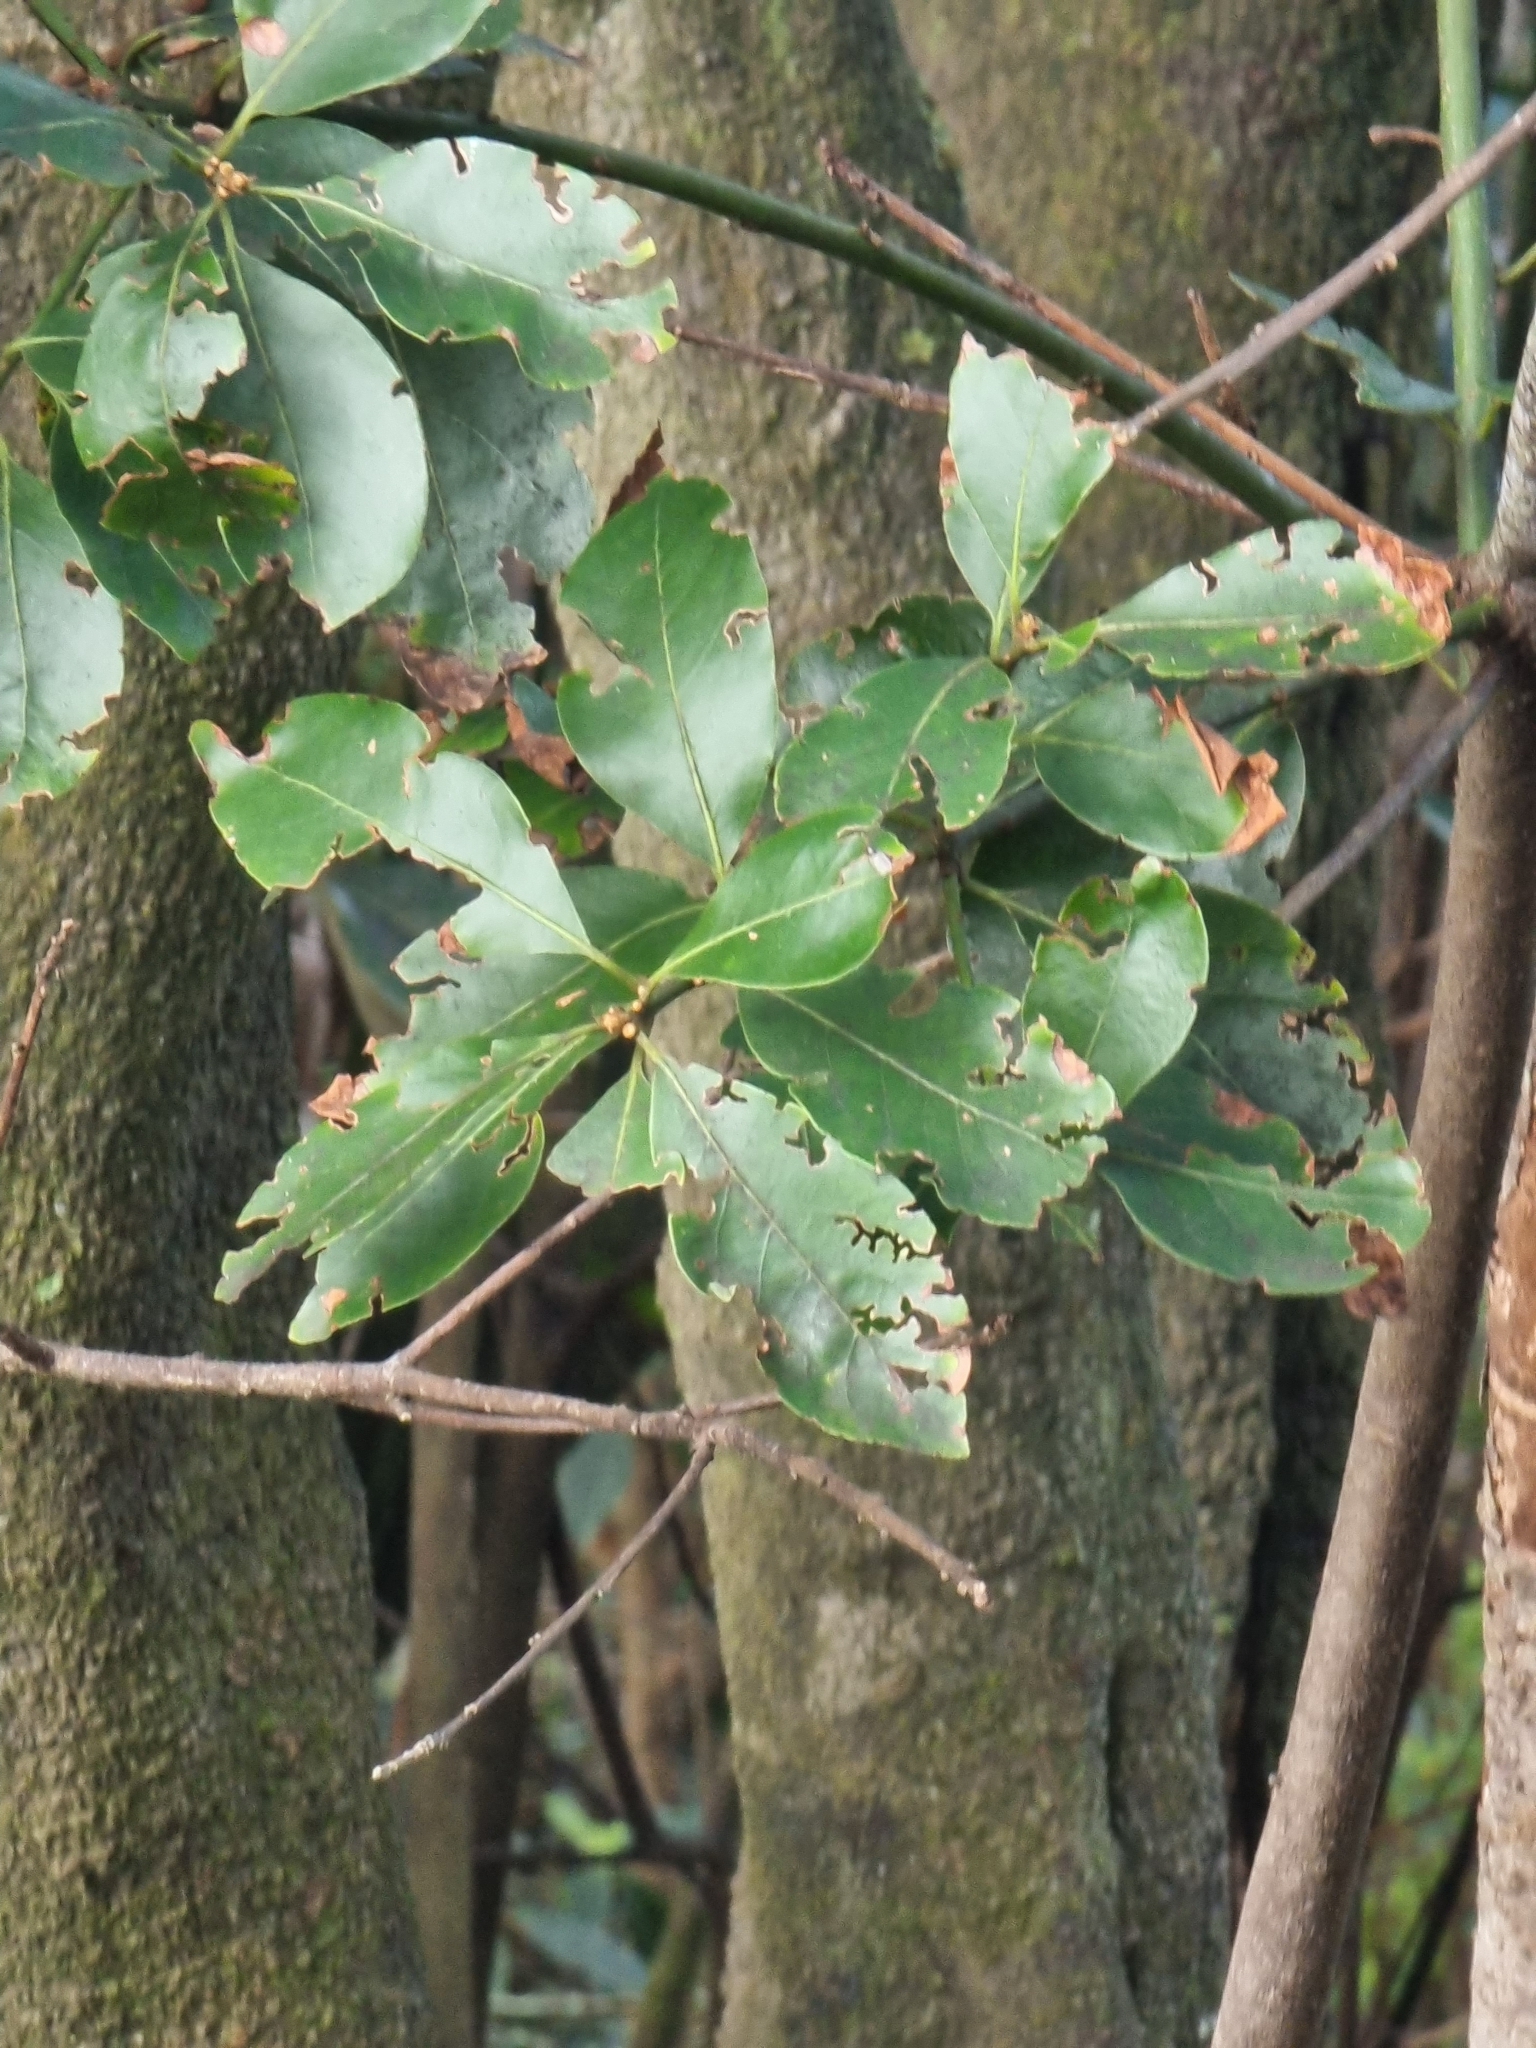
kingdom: Plantae
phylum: Tracheophyta
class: Magnoliopsida
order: Laurales
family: Lauraceae
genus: Laurus
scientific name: Laurus novocanariensis
